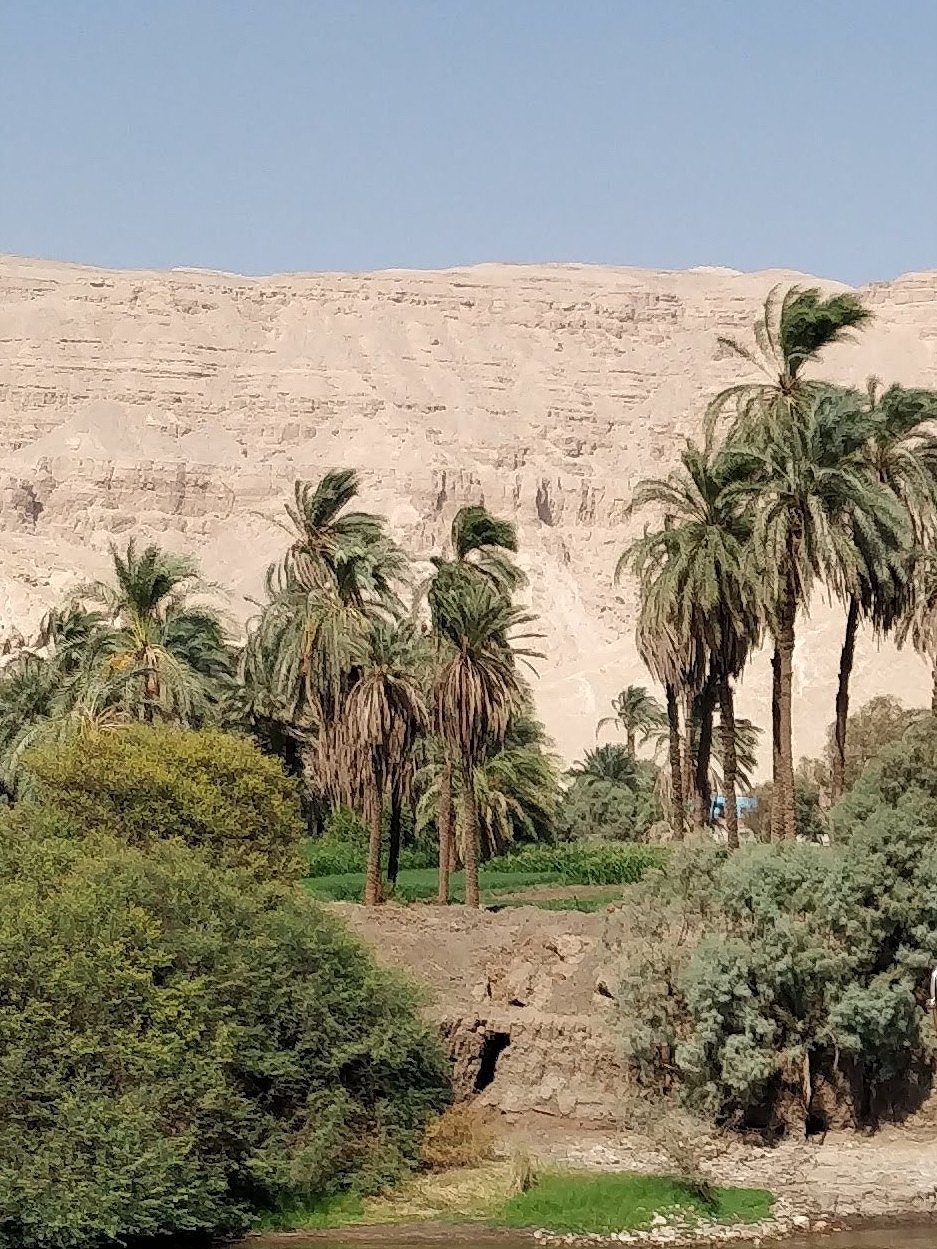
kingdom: Plantae
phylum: Tracheophyta
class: Liliopsida
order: Arecales
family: Arecaceae
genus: Phoenix
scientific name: Phoenix dactylifera
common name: Date palm
